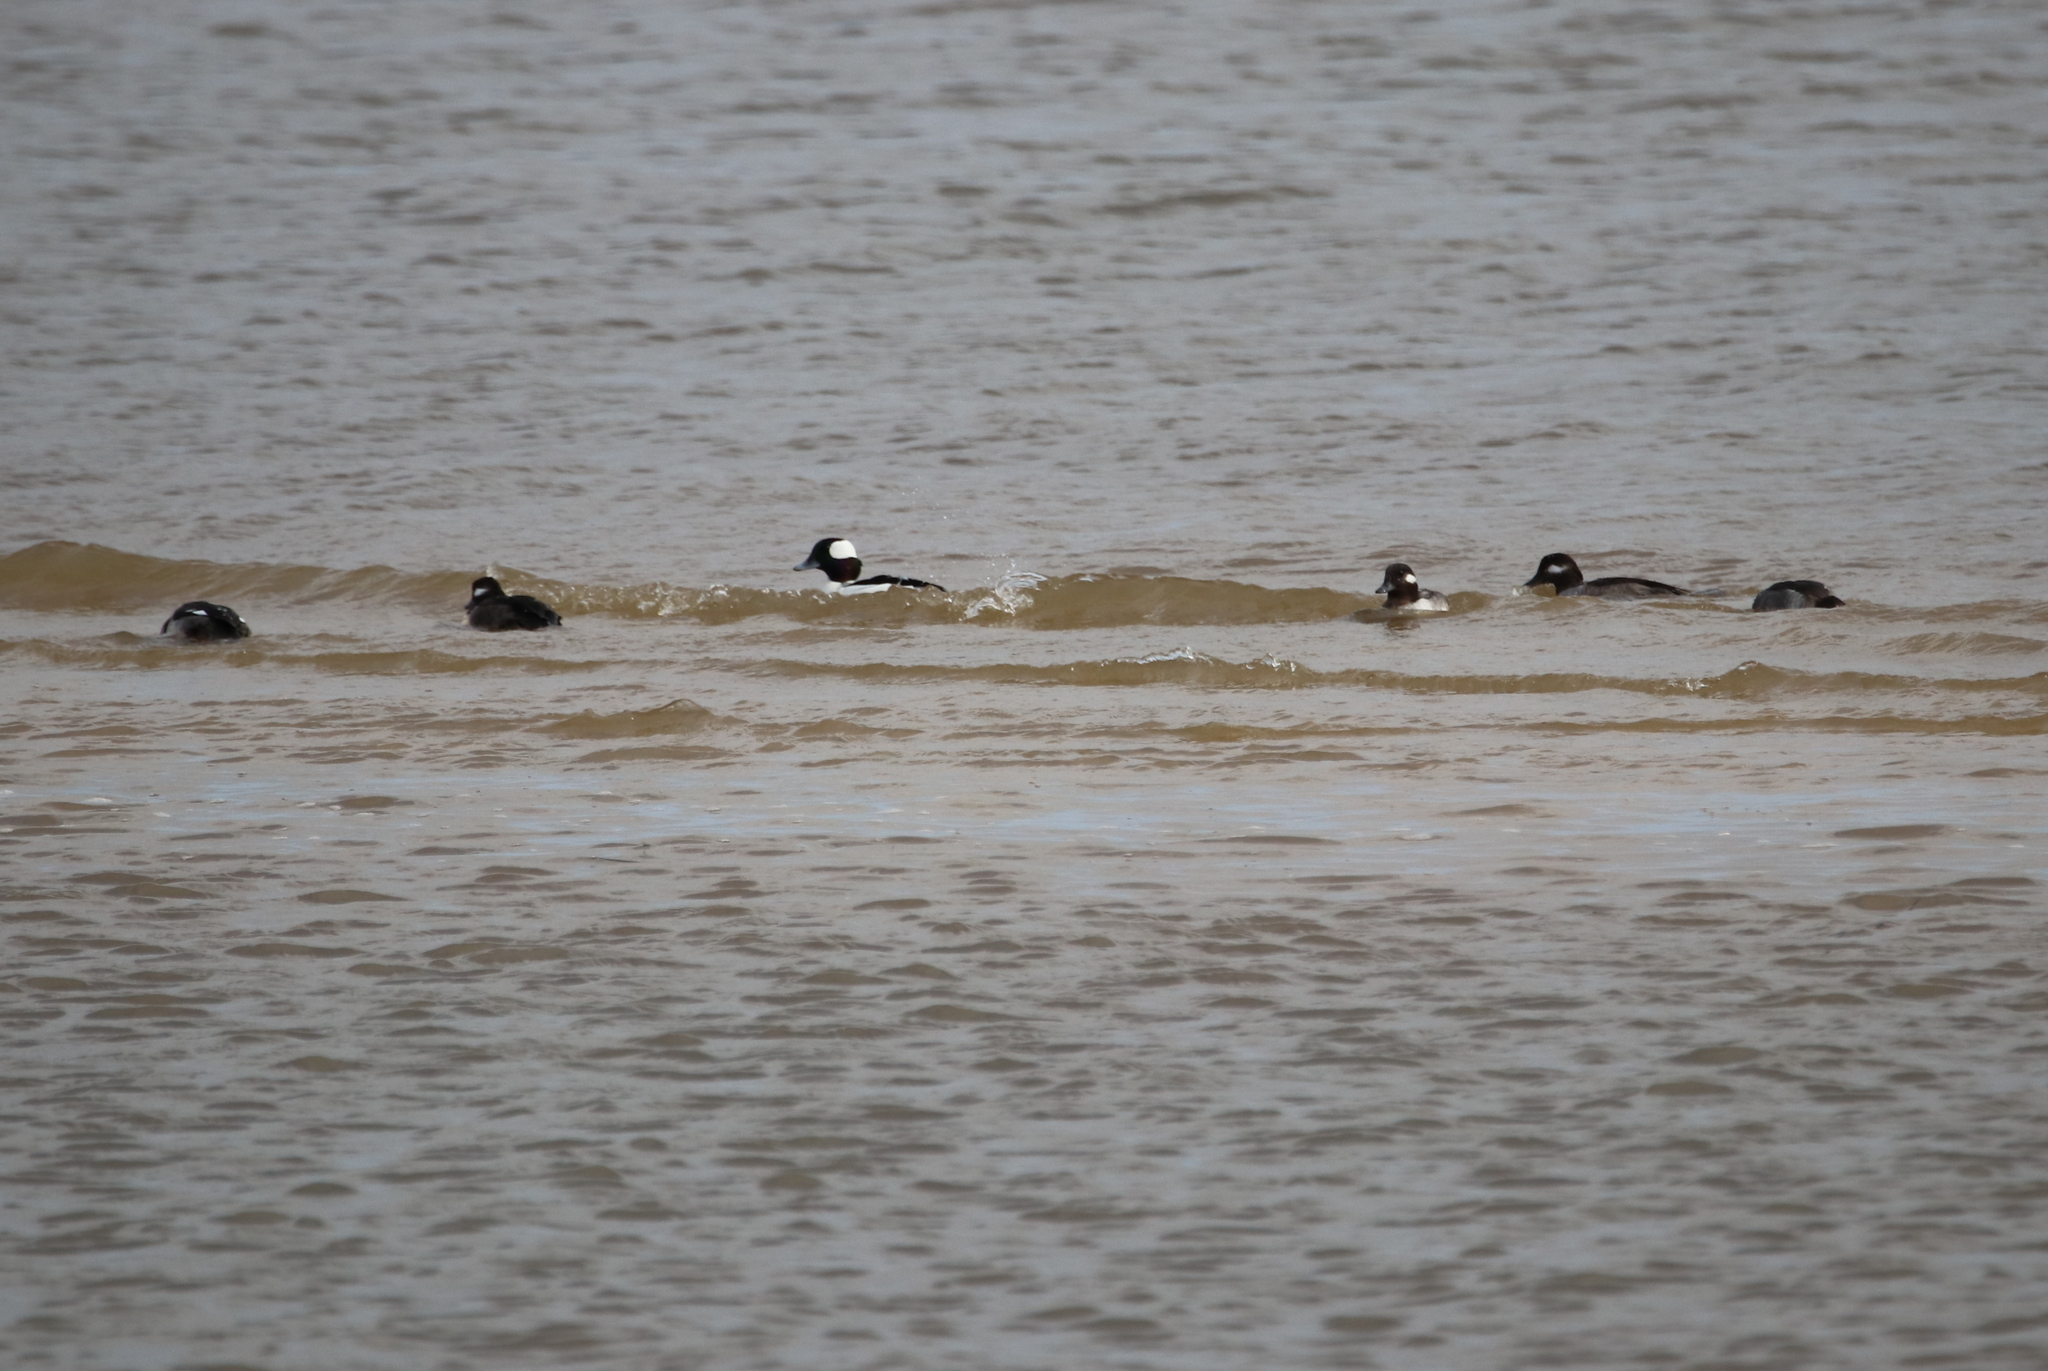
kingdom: Animalia
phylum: Chordata
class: Aves
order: Anseriformes
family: Anatidae
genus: Bucephala
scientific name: Bucephala albeola
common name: Bufflehead
